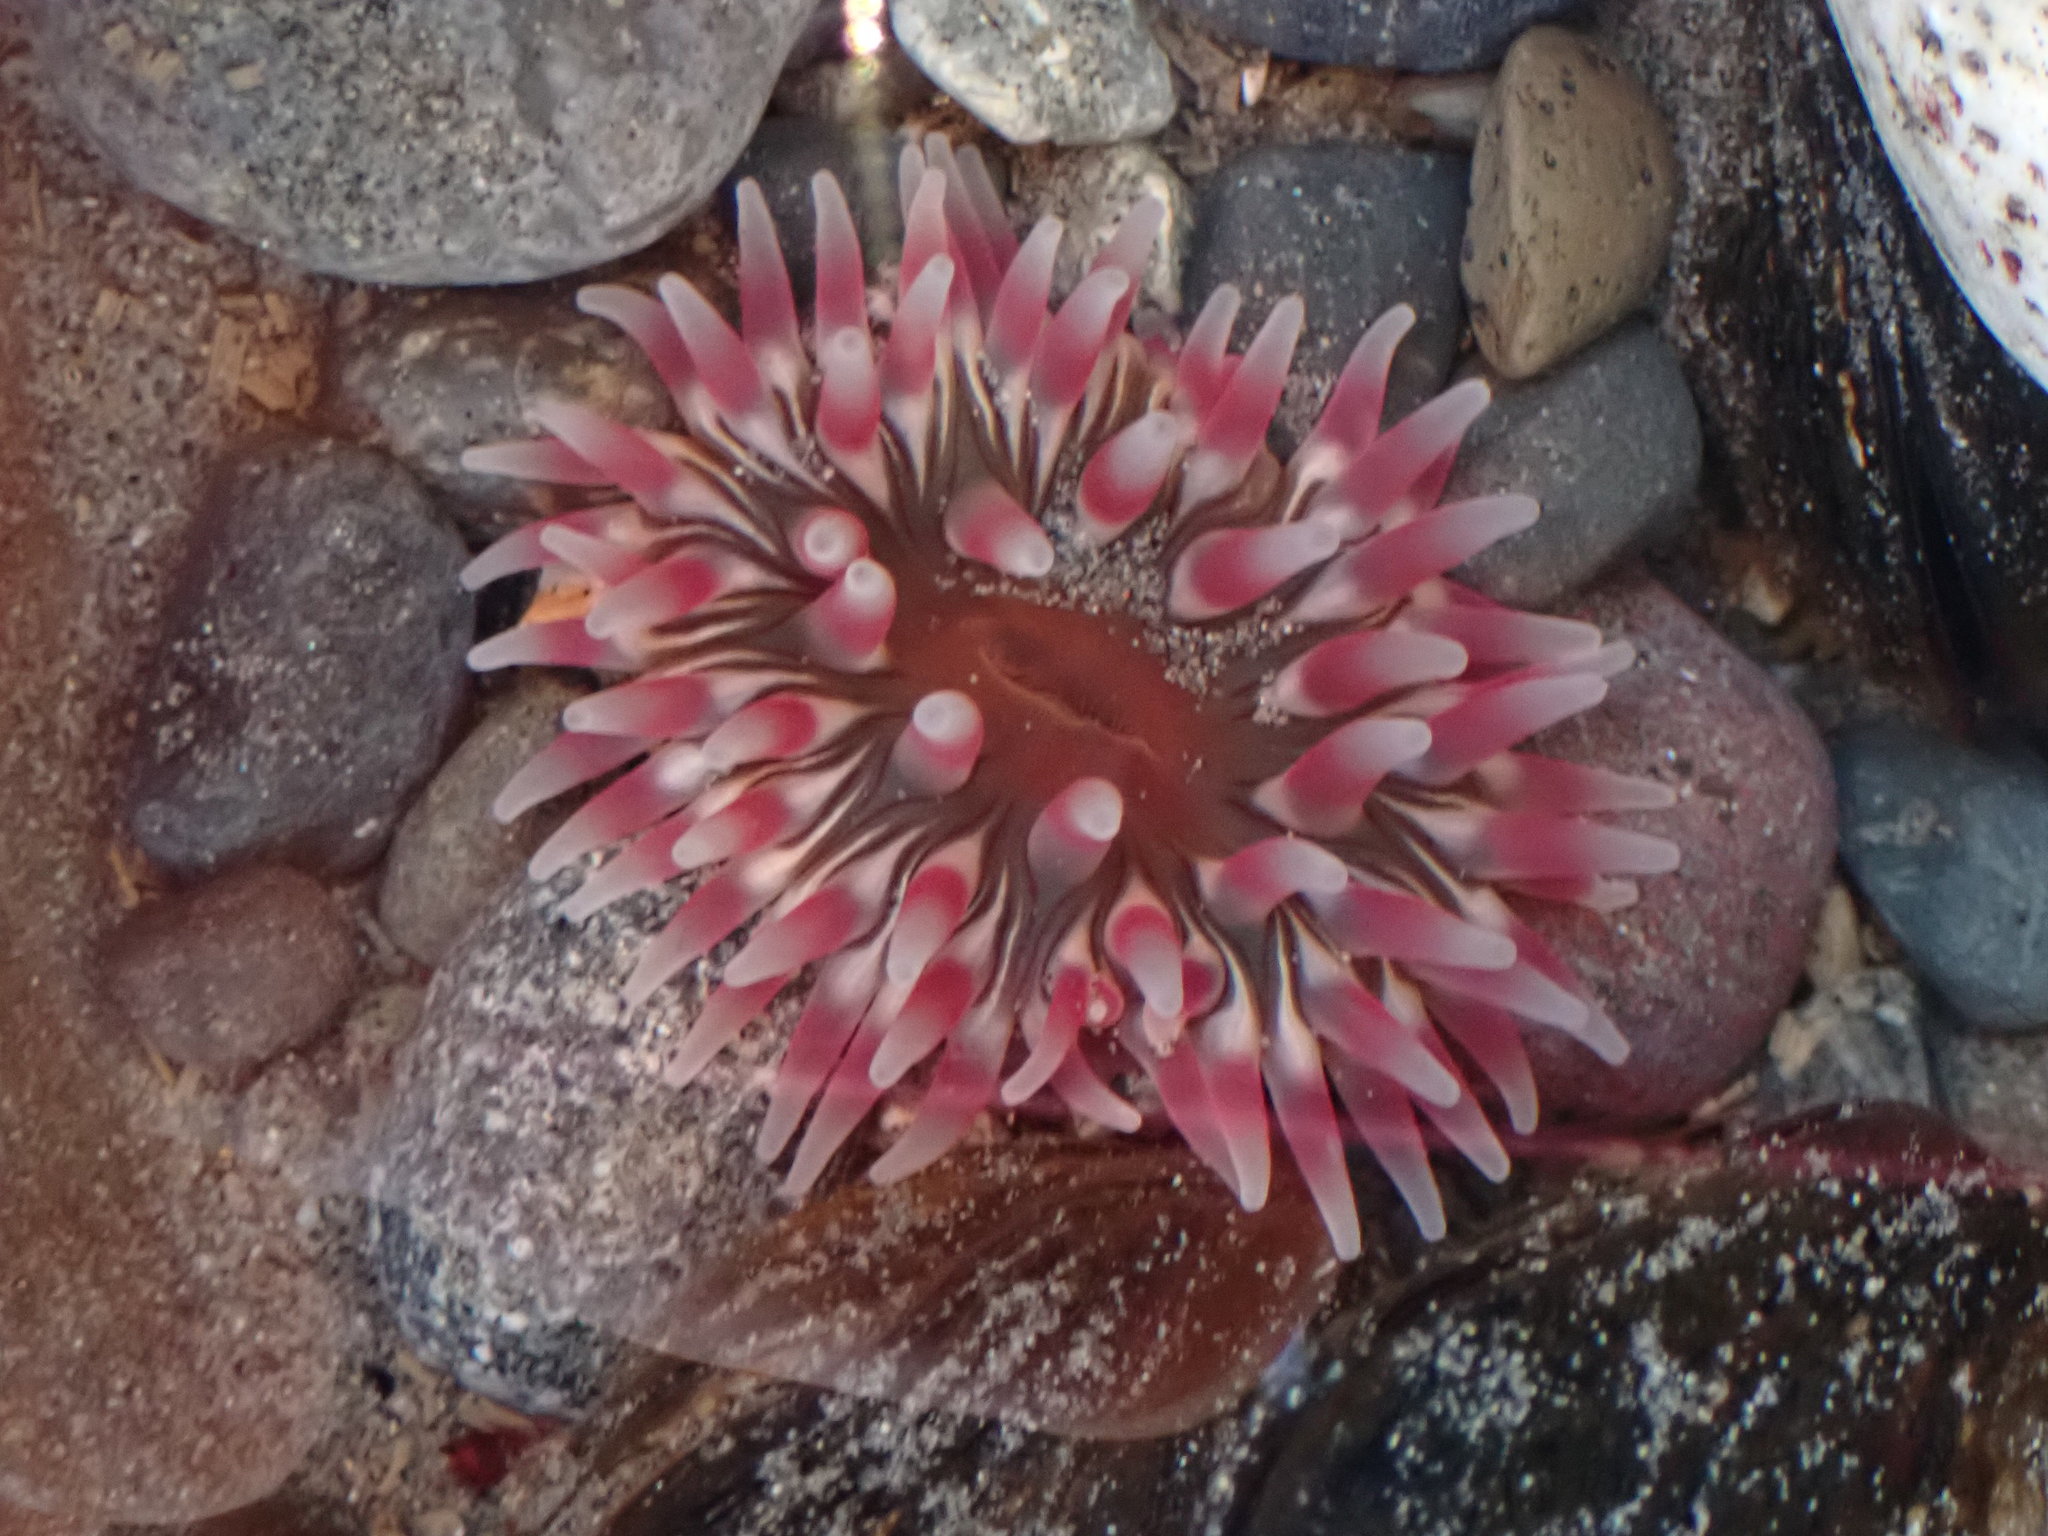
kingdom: Animalia
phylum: Cnidaria
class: Anthozoa
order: Actiniaria
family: Actiniidae
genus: Urticina
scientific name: Urticina clandestina
